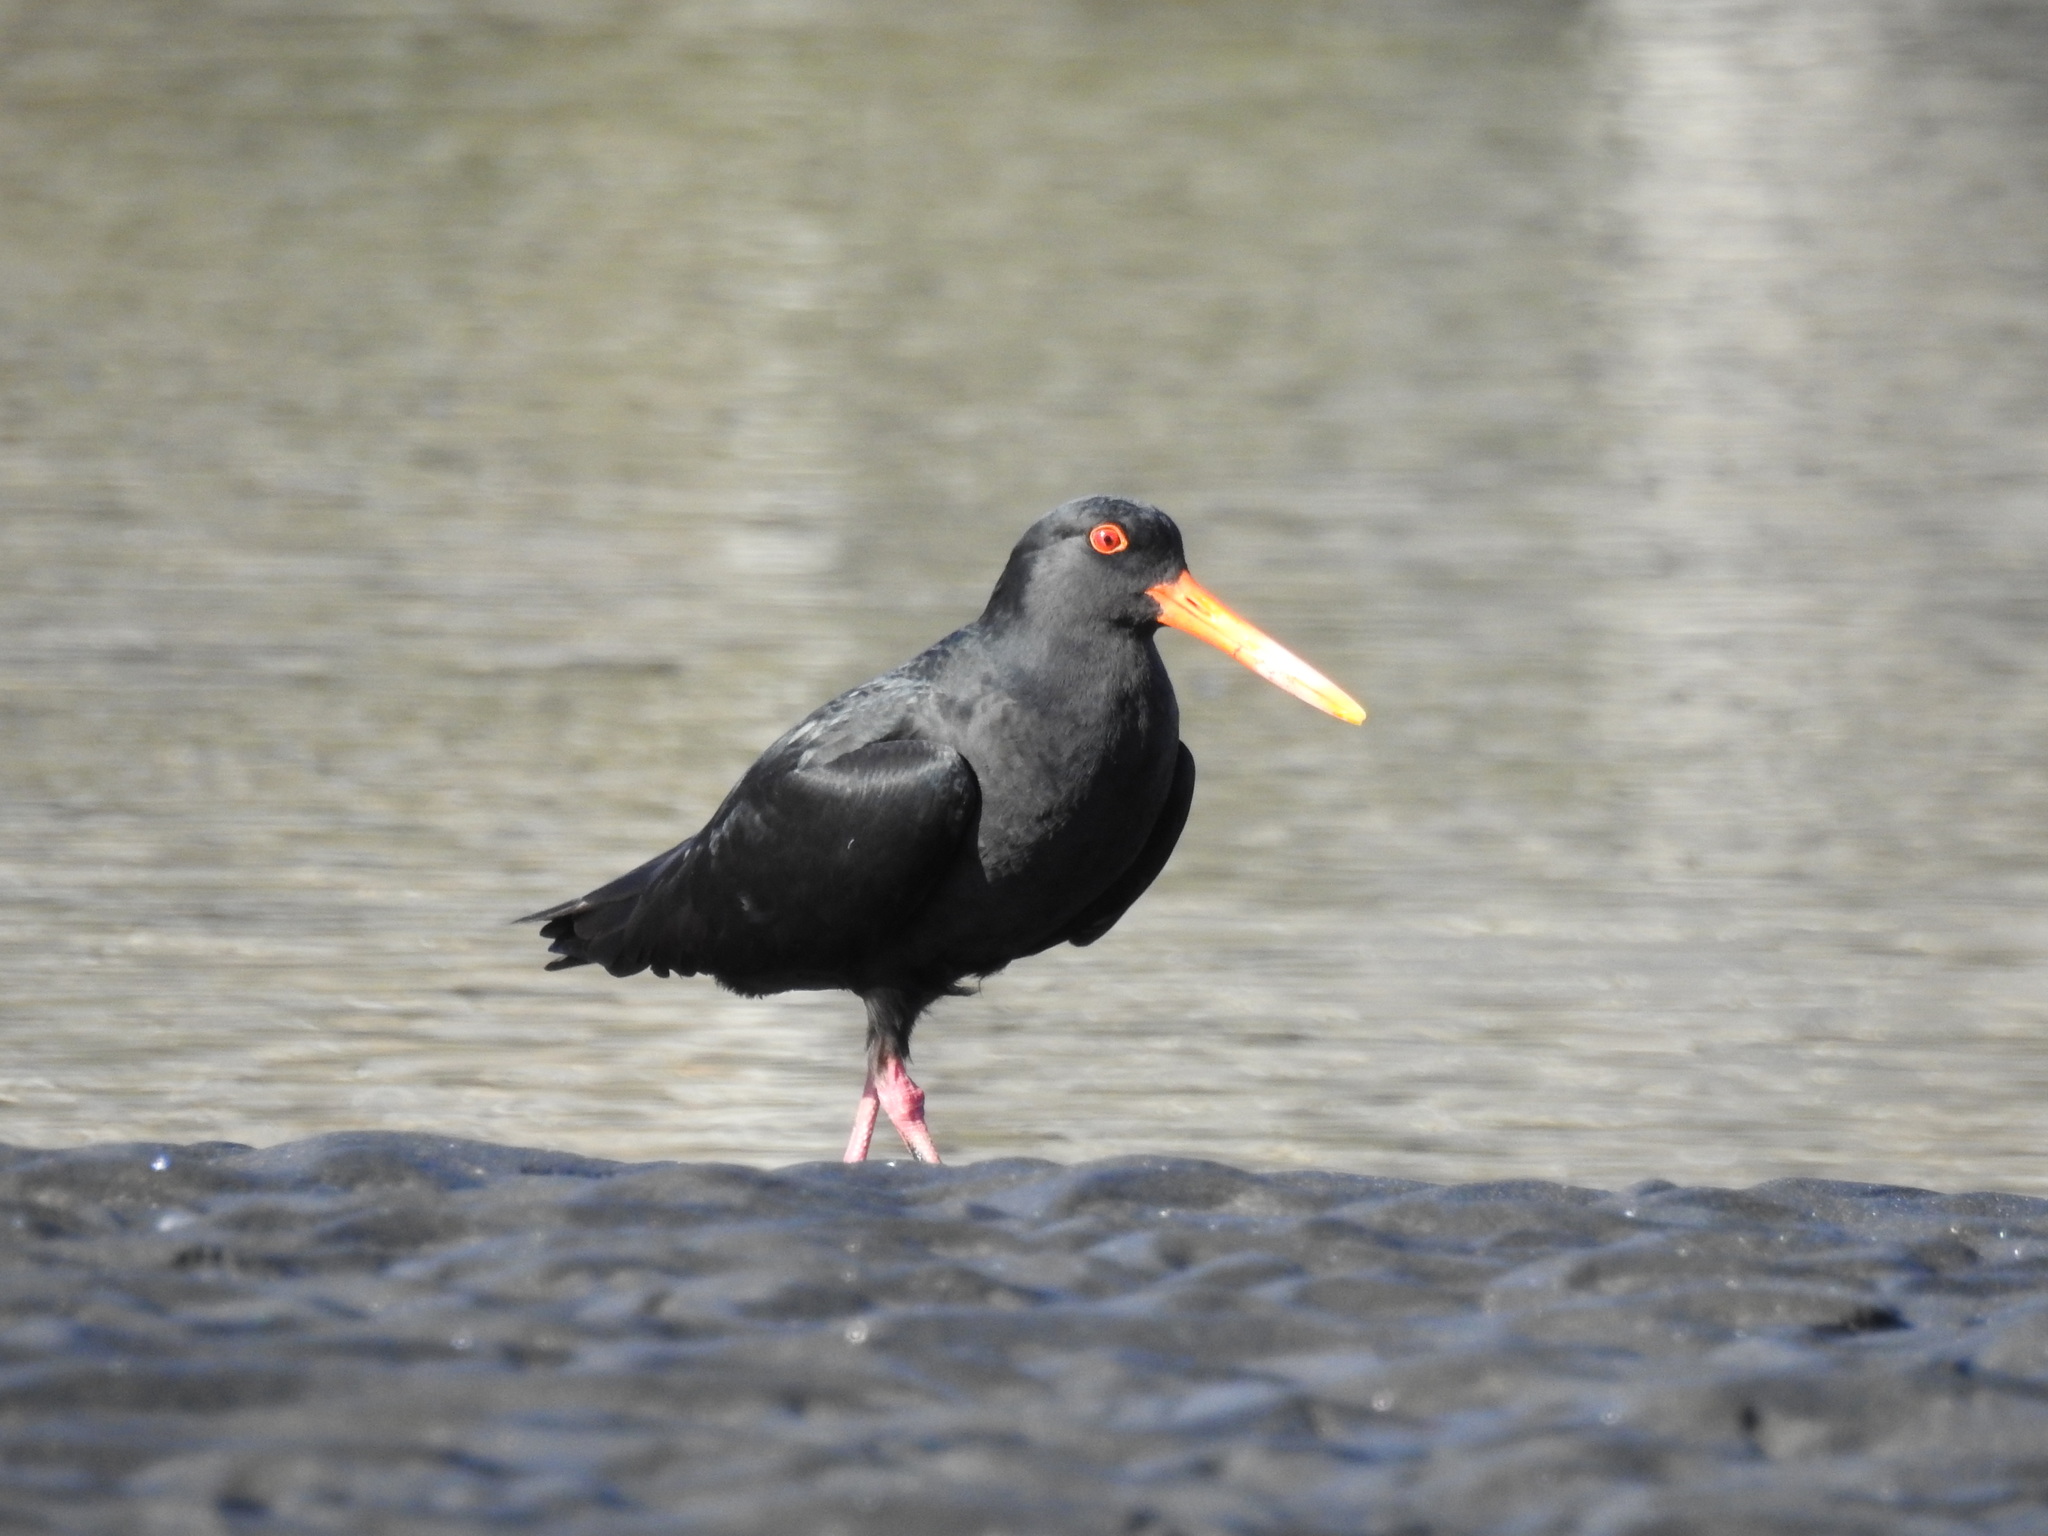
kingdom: Animalia
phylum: Chordata
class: Aves
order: Charadriiformes
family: Haematopodidae
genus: Haematopus
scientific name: Haematopus unicolor
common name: Variable oystercatcher
